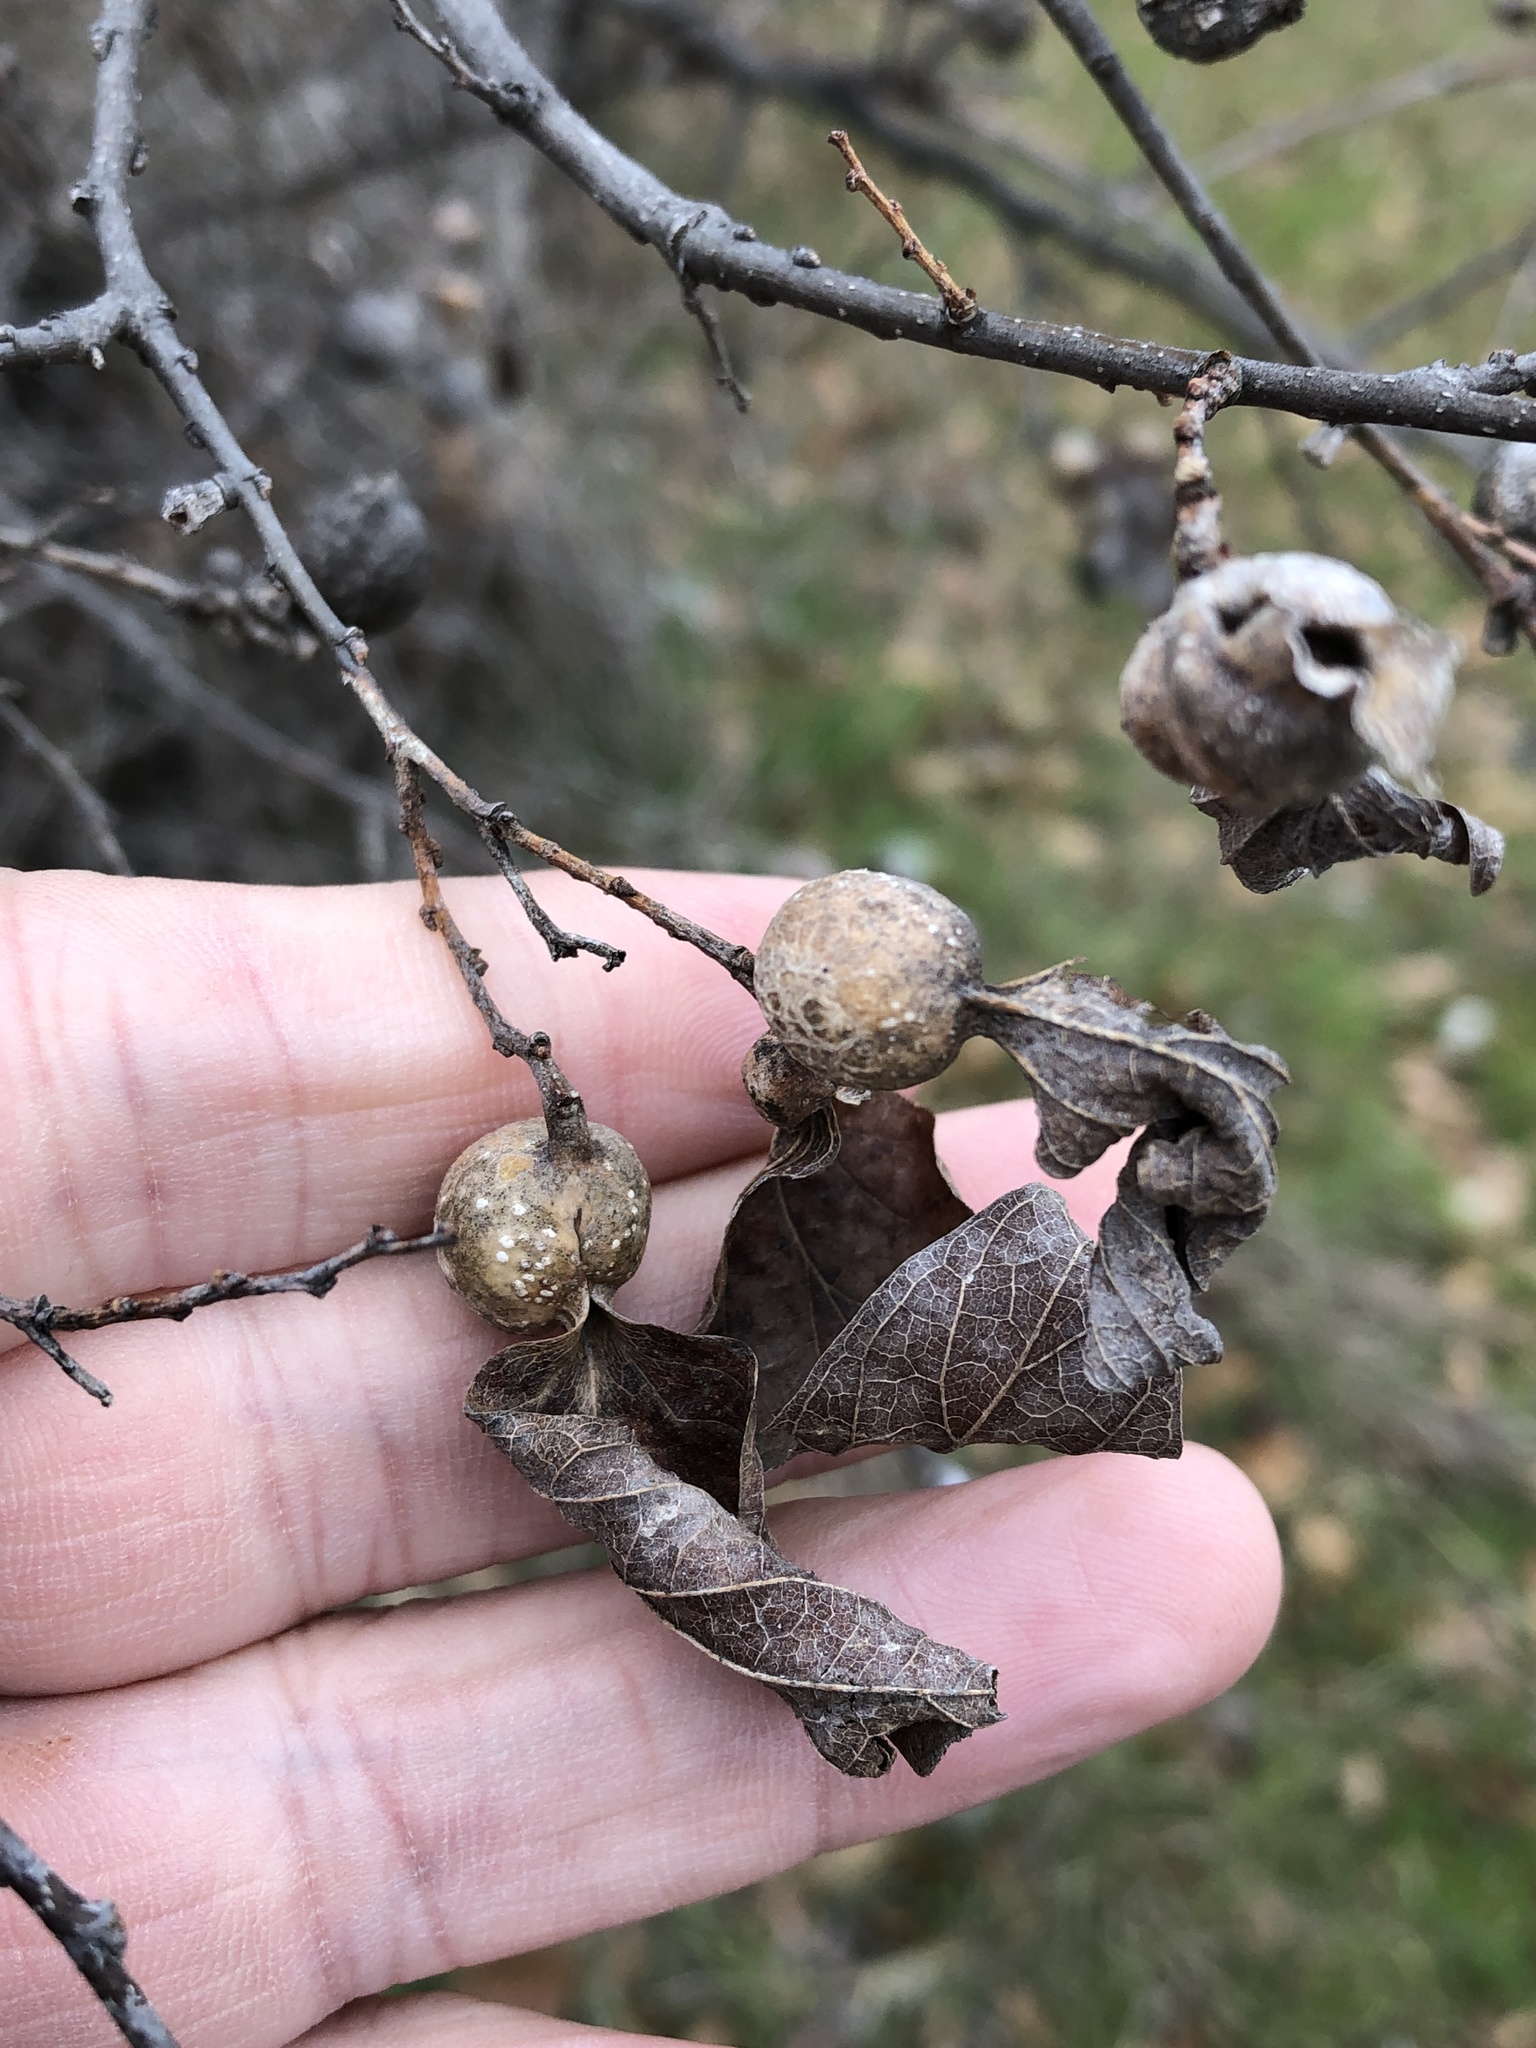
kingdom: Animalia
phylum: Arthropoda
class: Insecta
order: Hemiptera
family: Aphalaridae
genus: Pachypsylla
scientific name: Pachypsylla venusta
